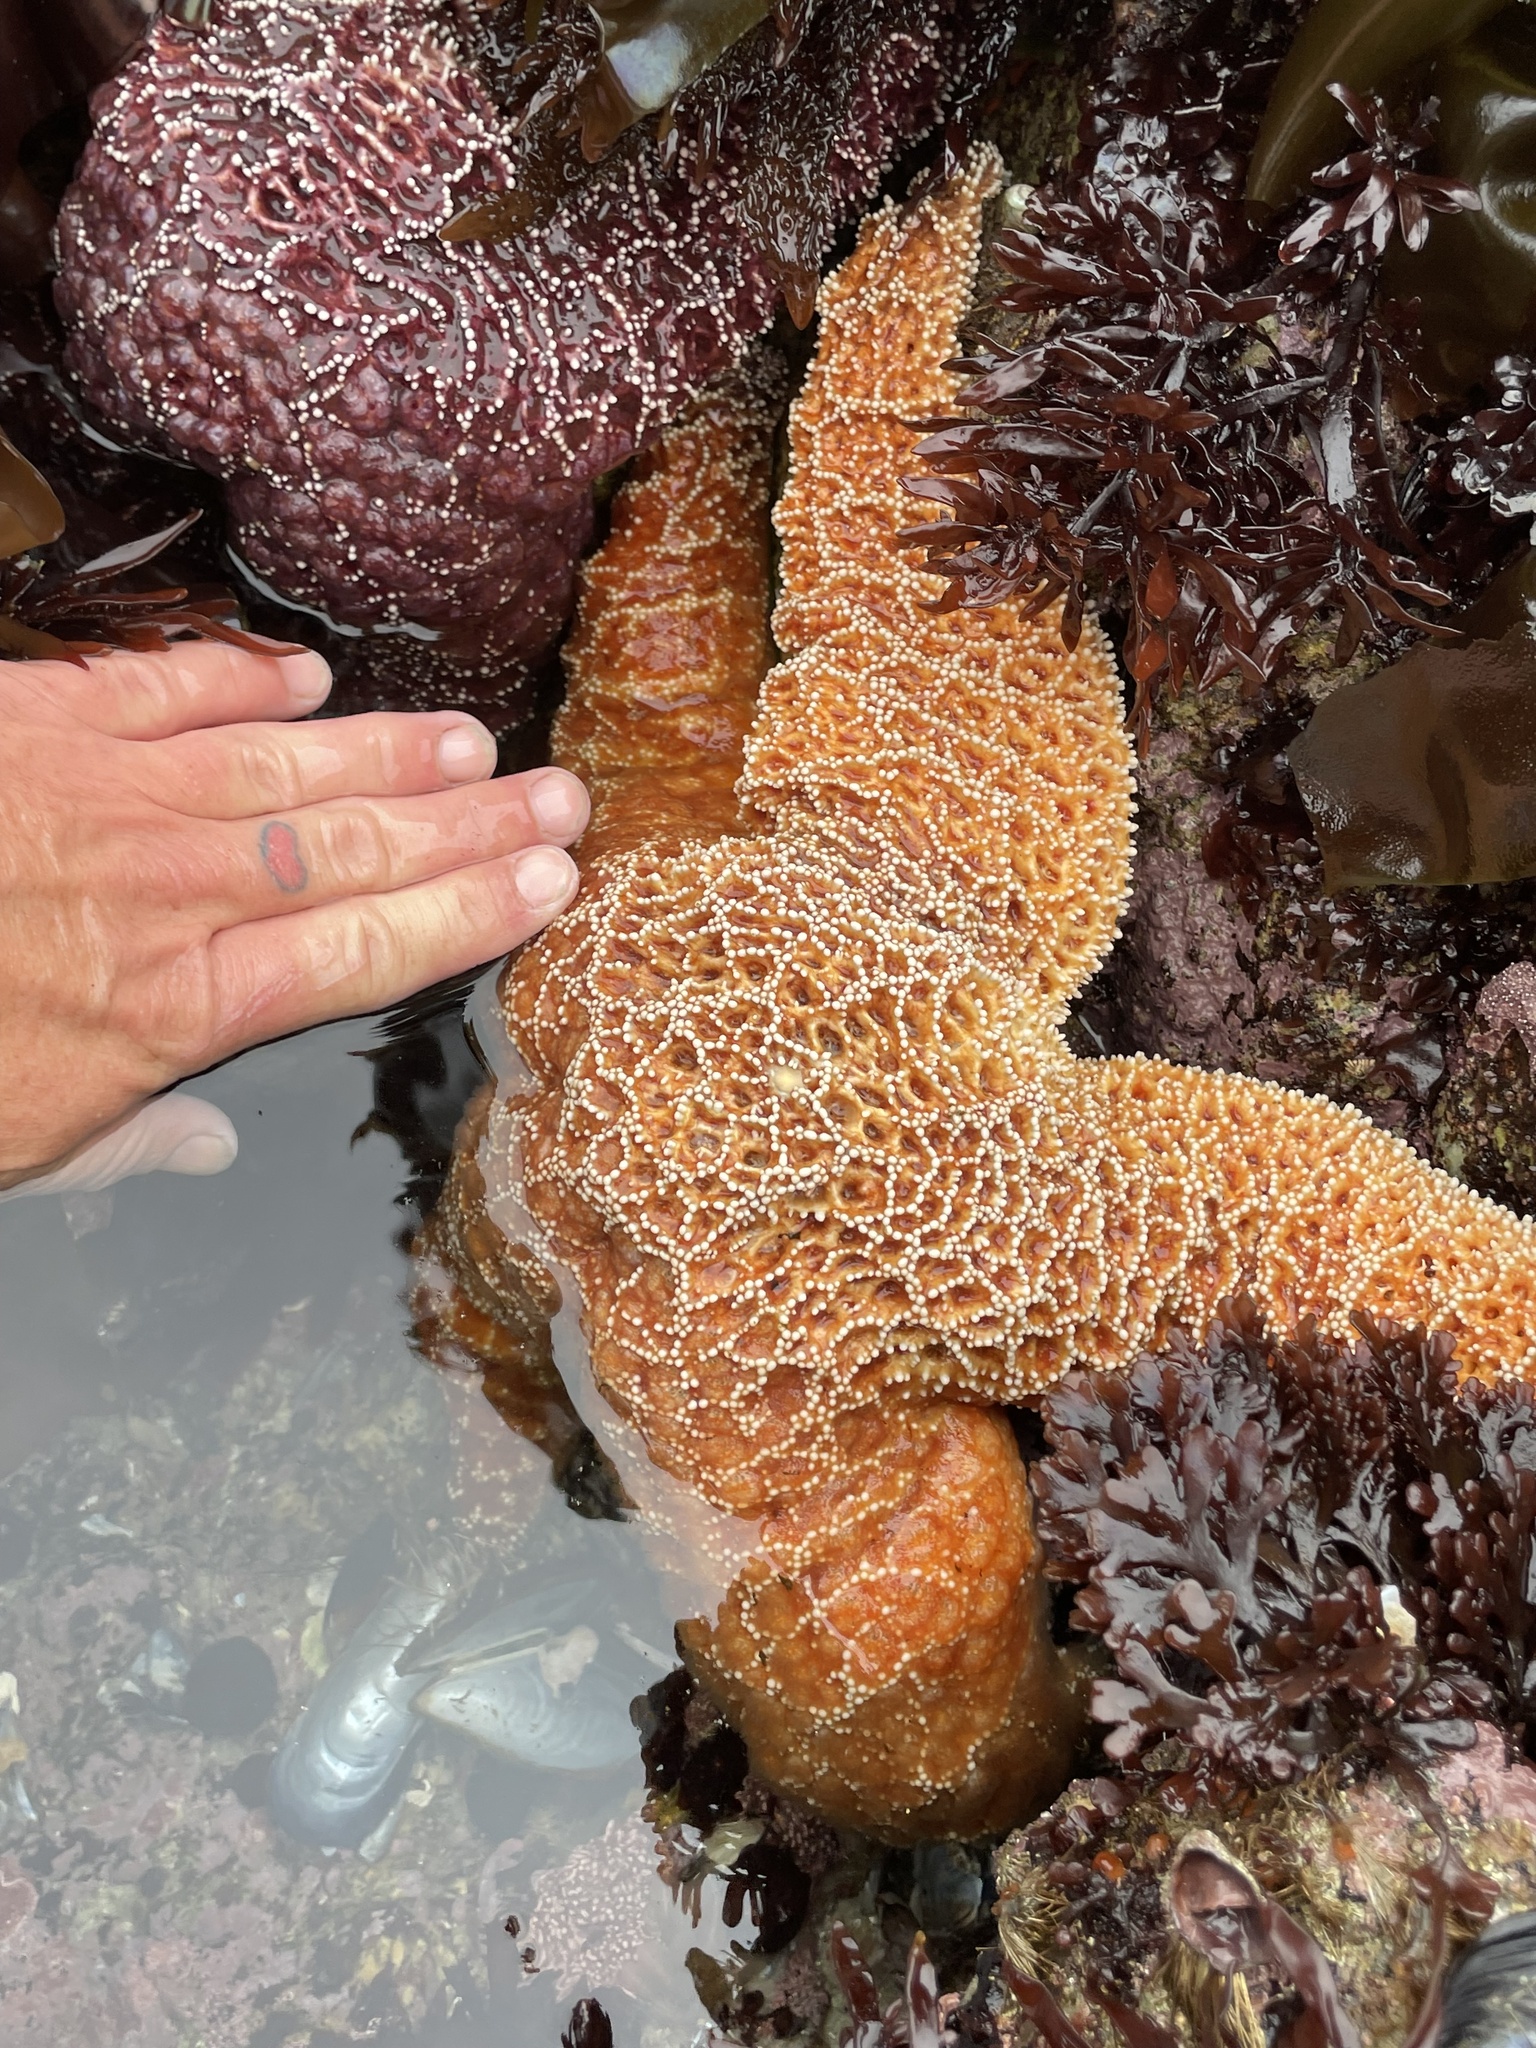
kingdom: Animalia
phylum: Echinodermata
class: Asteroidea
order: Forcipulatida
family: Asteriidae
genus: Pisaster
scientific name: Pisaster ochraceus
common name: Ochre stars
